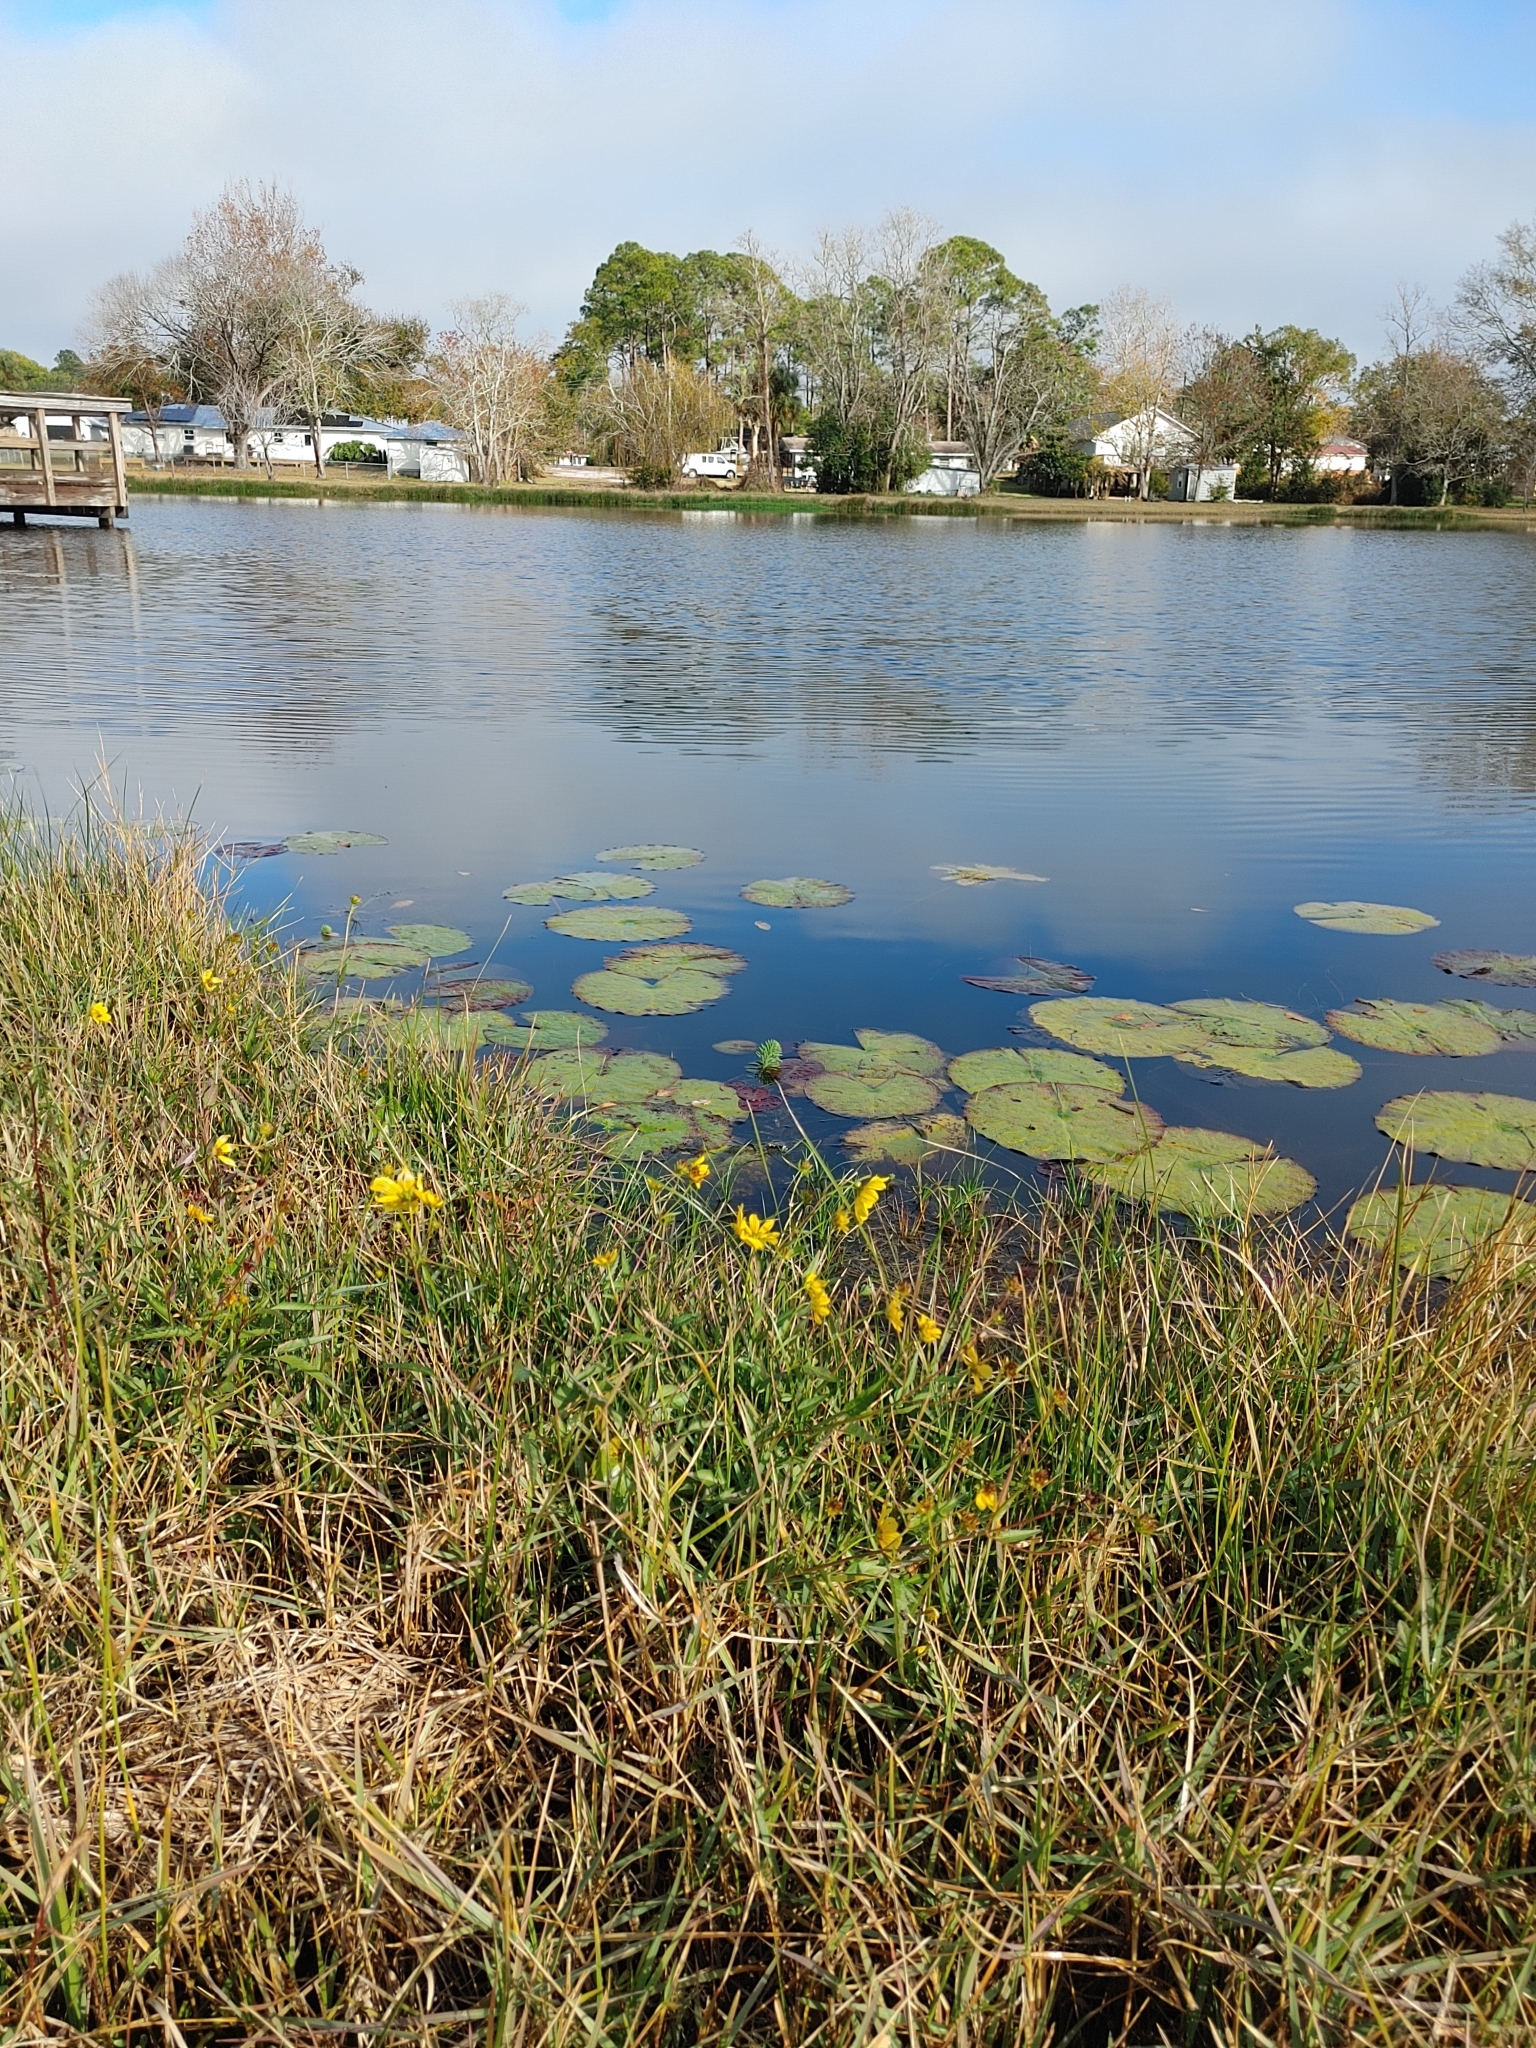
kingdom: Plantae
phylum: Tracheophyta
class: Magnoliopsida
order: Asterales
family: Asteraceae
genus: Bidens
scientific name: Bidens mitis
